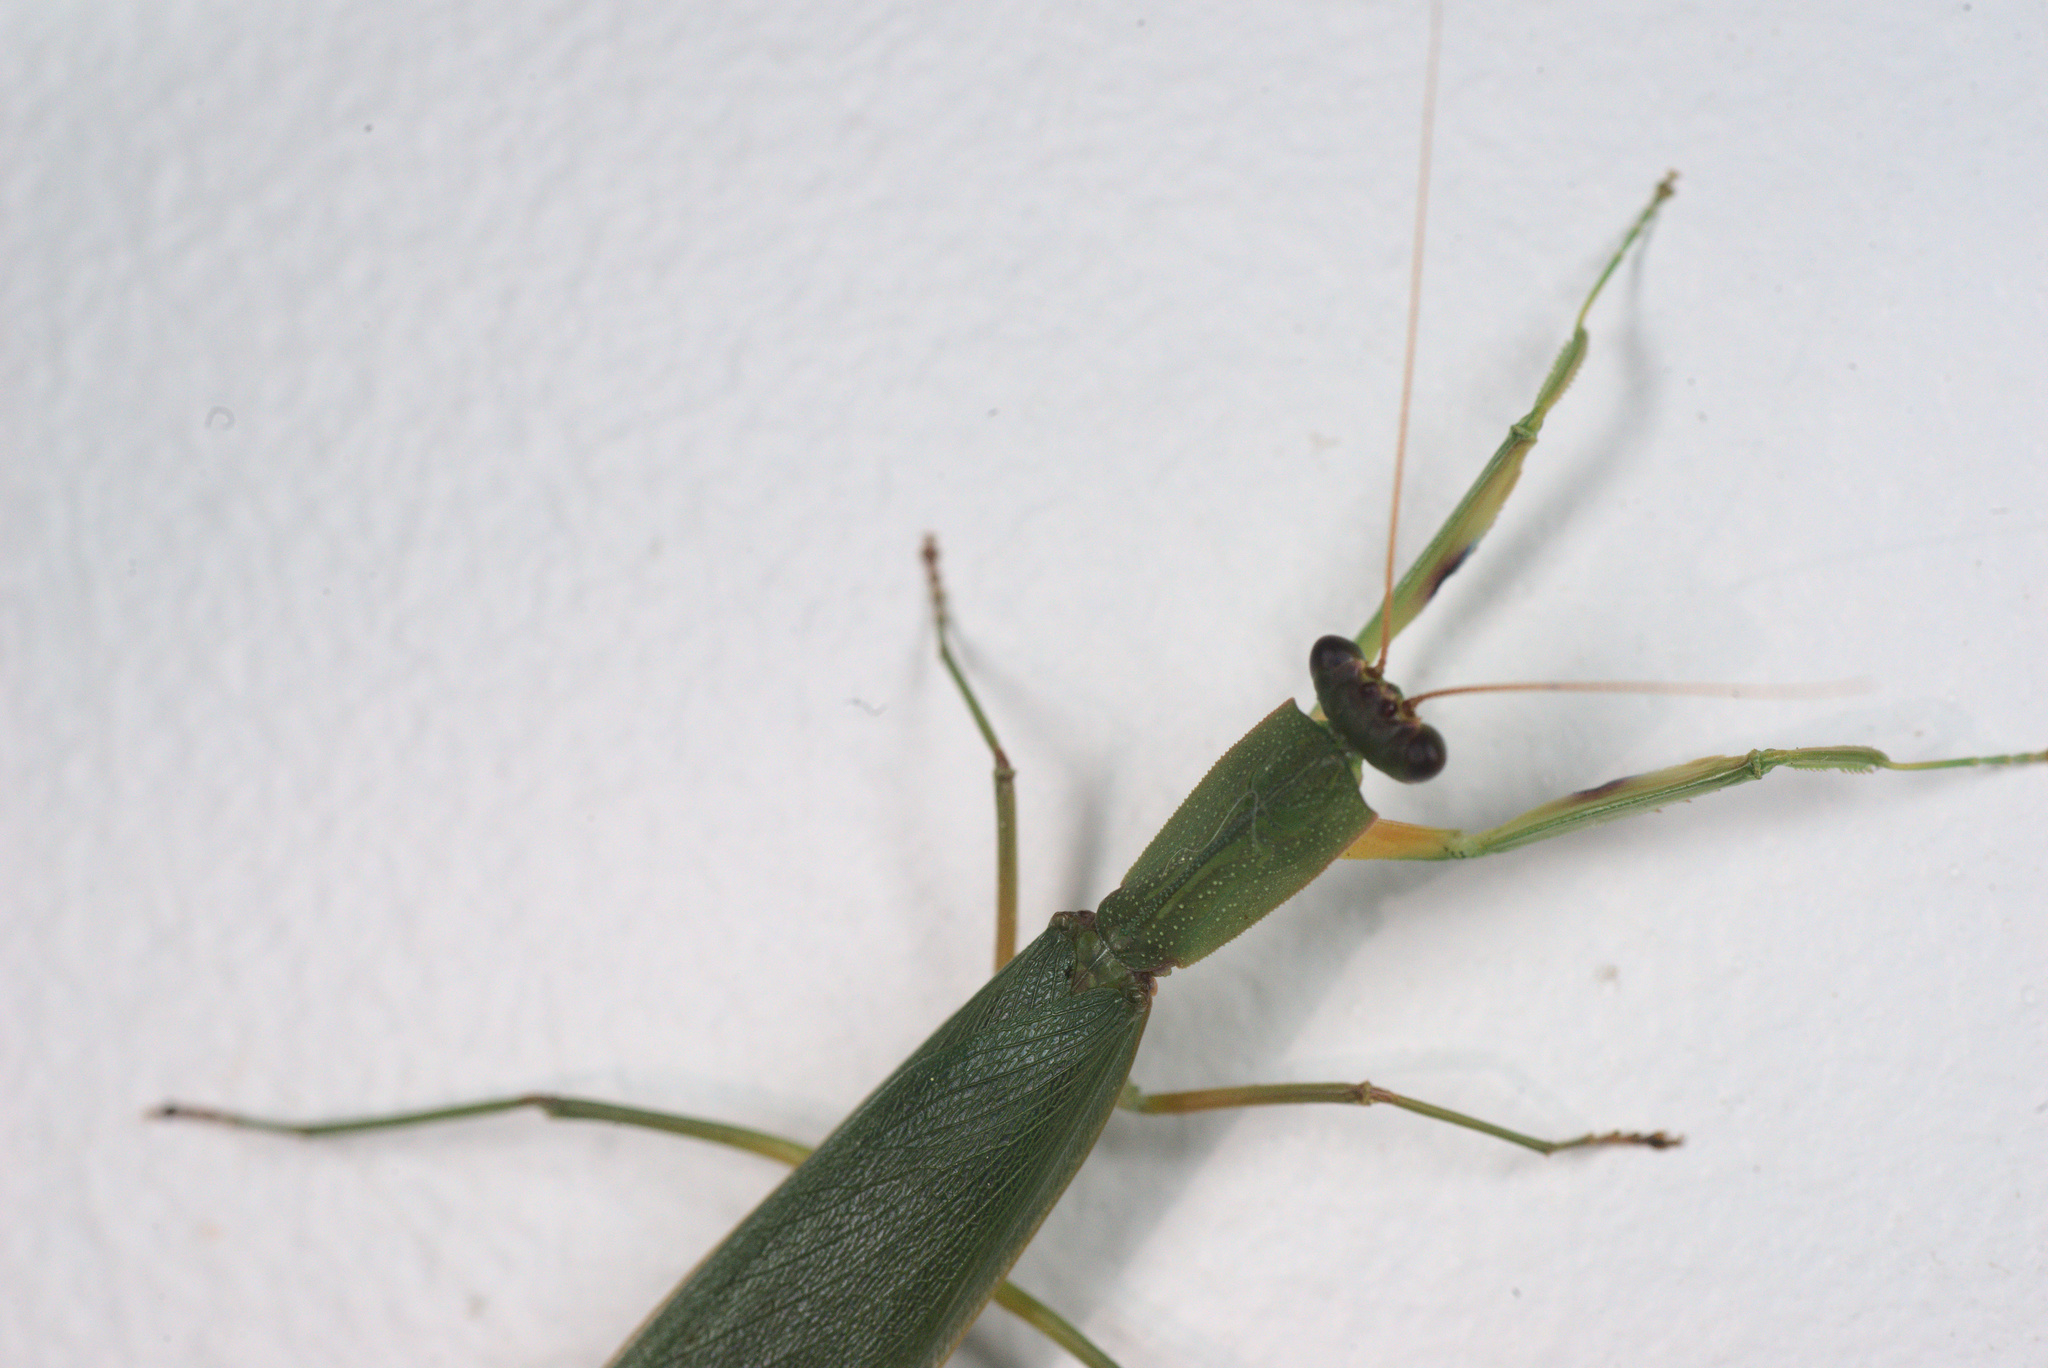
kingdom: Animalia
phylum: Arthropoda
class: Insecta
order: Mantodea
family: Mantidae
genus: Orthodera
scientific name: Orthodera novaezealandiae
